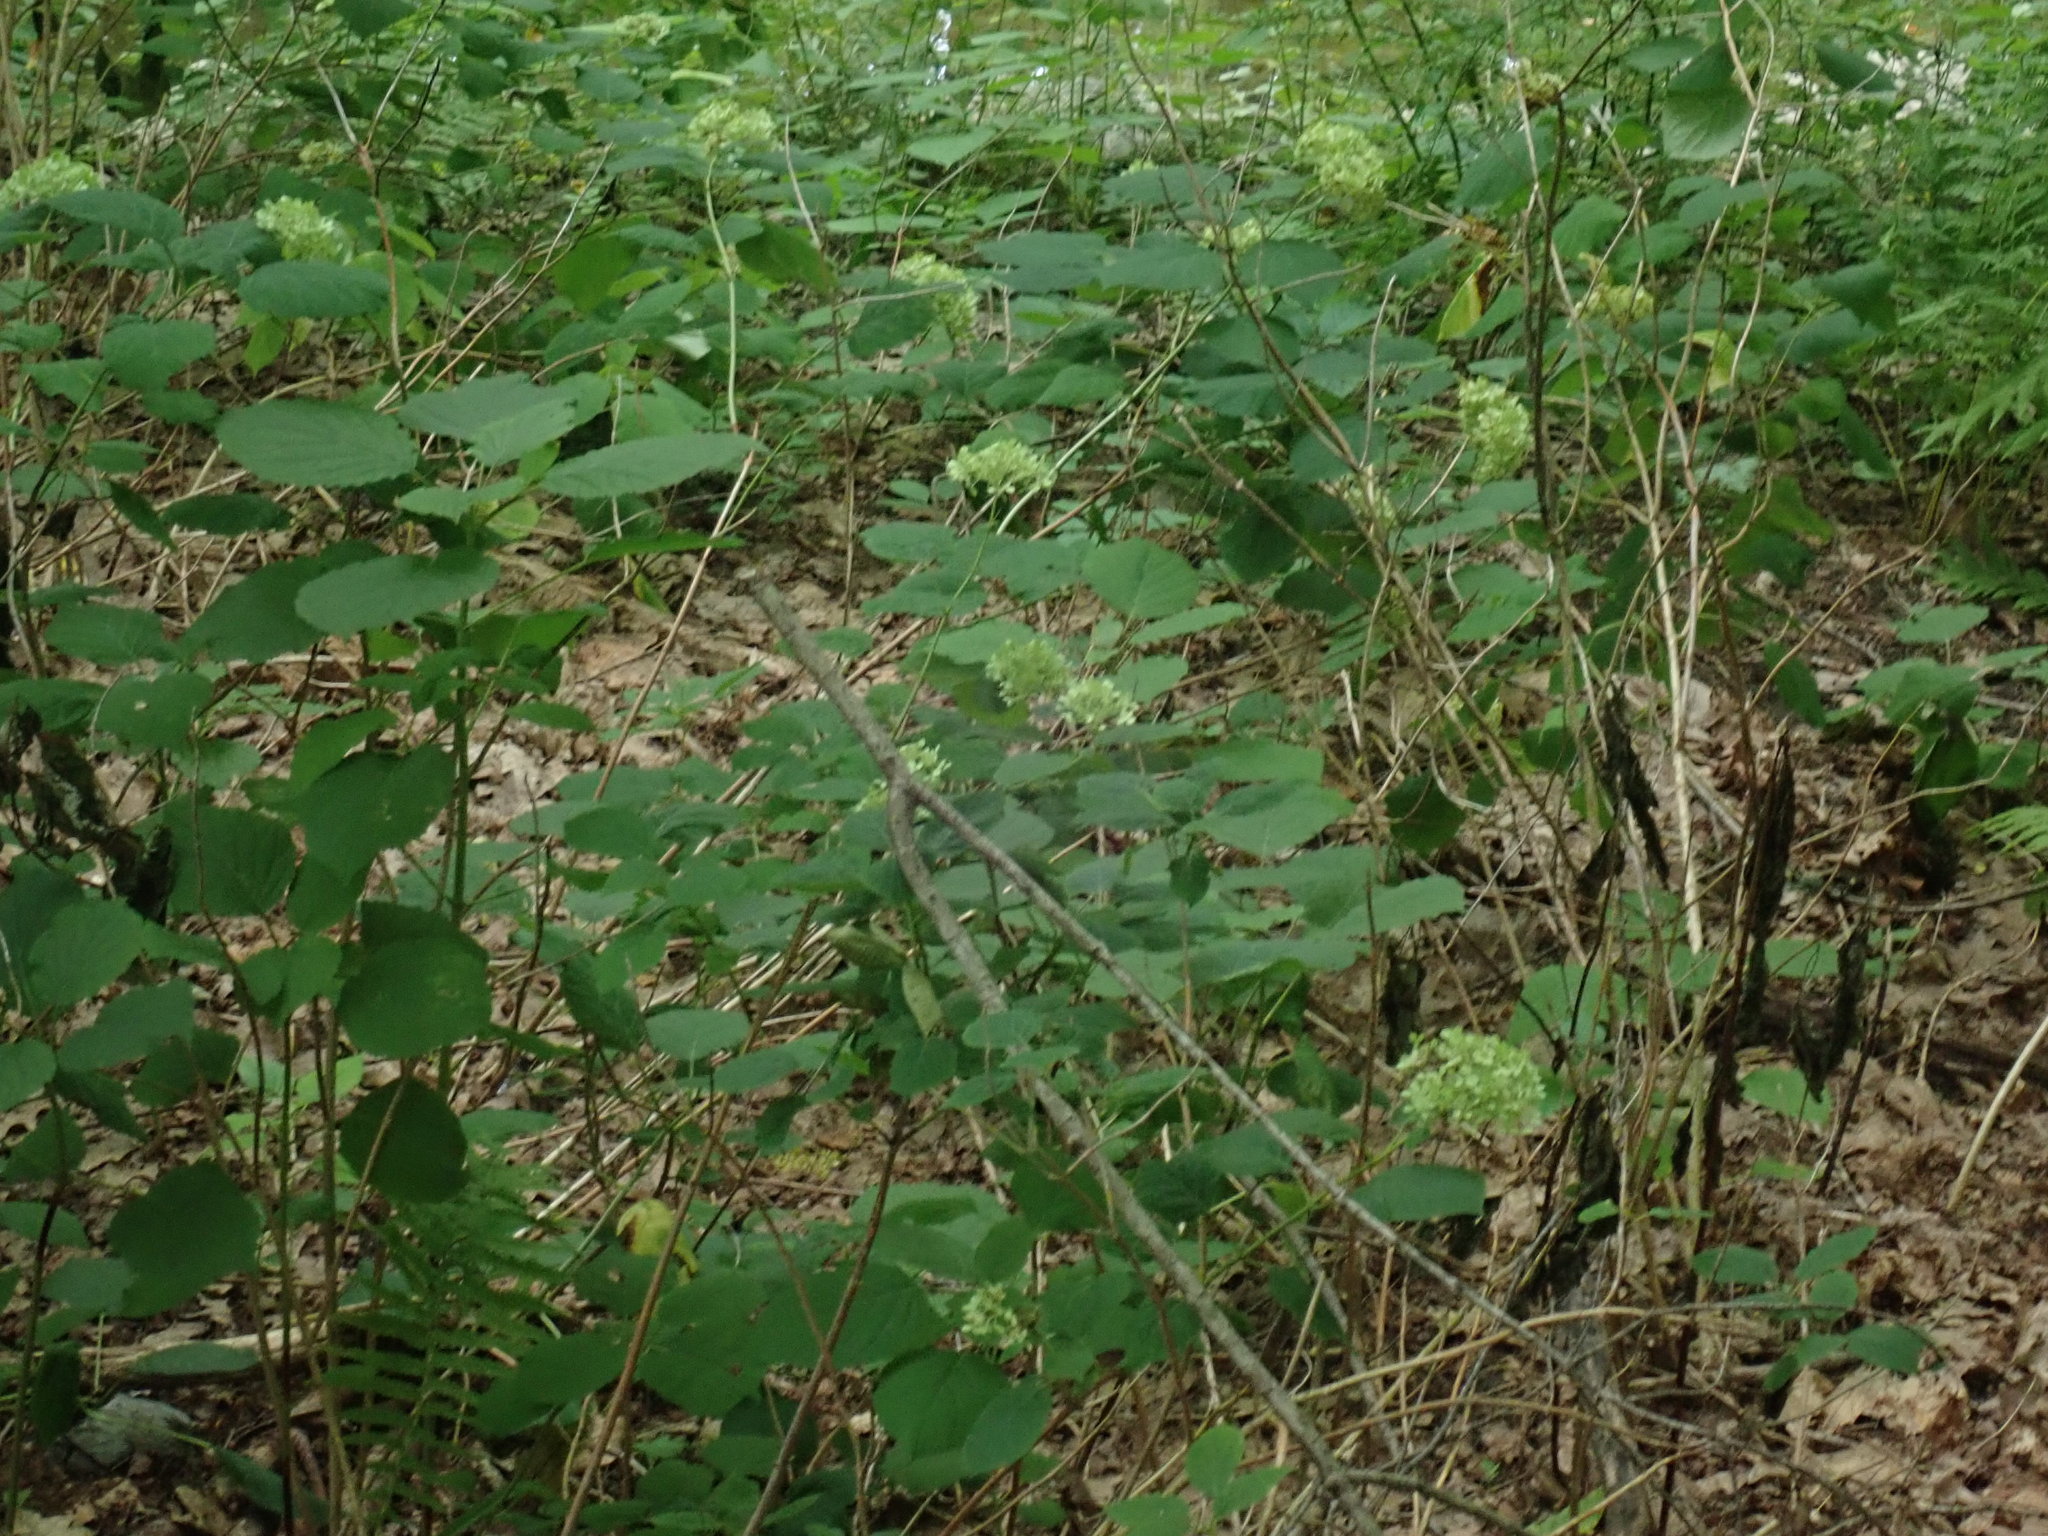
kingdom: Plantae
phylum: Tracheophyta
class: Magnoliopsida
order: Cornales
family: Hydrangeaceae
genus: Hydrangea
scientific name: Hydrangea arborescens
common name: Sevenbark
